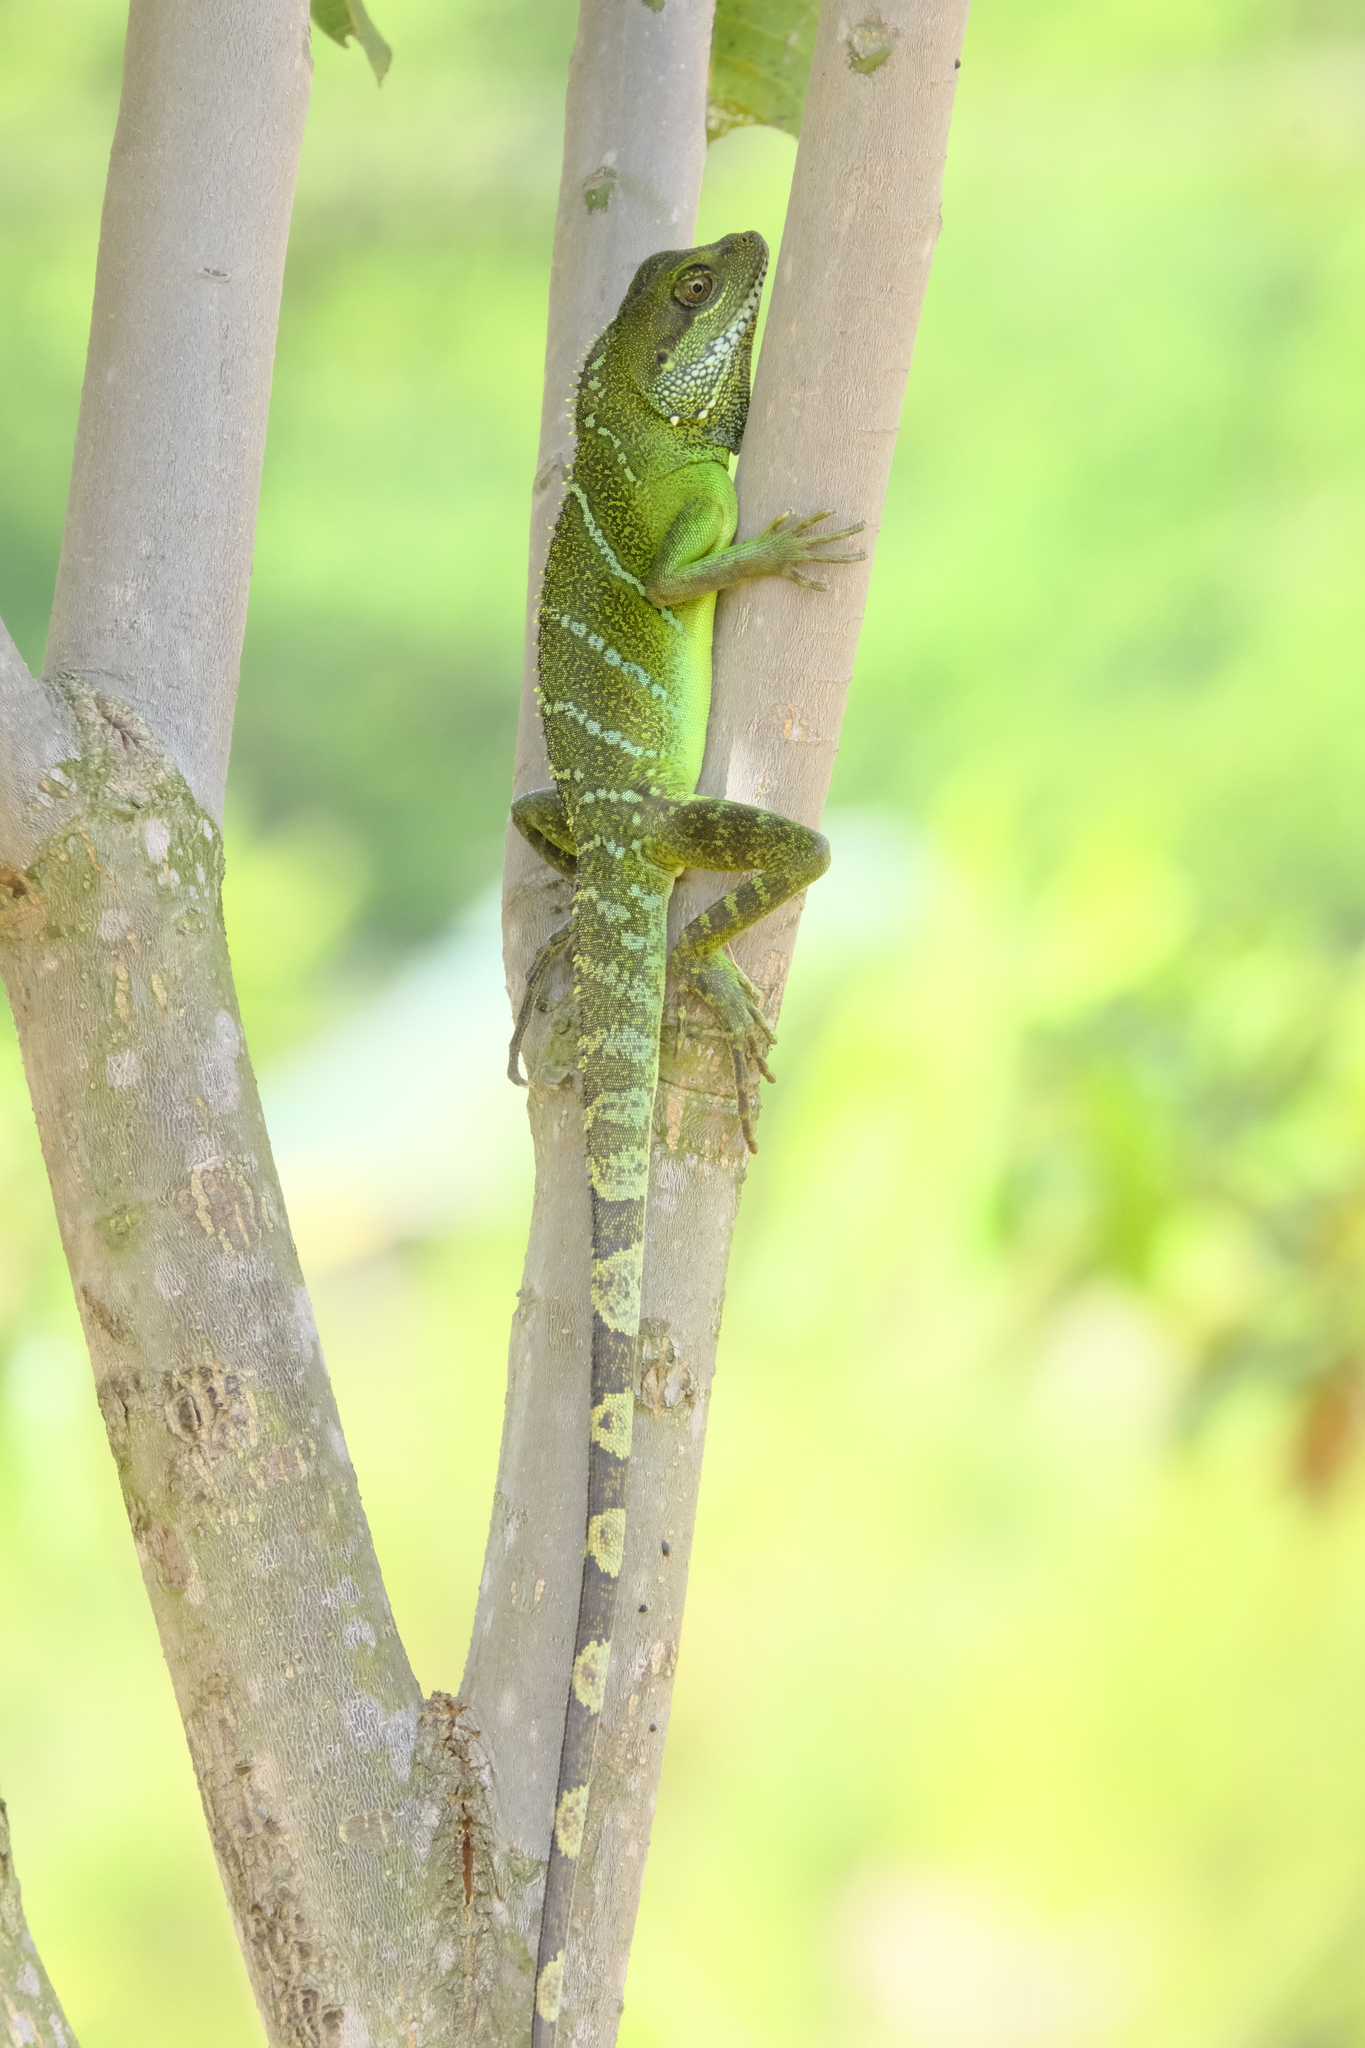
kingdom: Animalia
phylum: Chordata
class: Squamata
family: Agamidae
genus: Physignathus
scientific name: Physignathus cocincinus
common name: Asian water dragon
